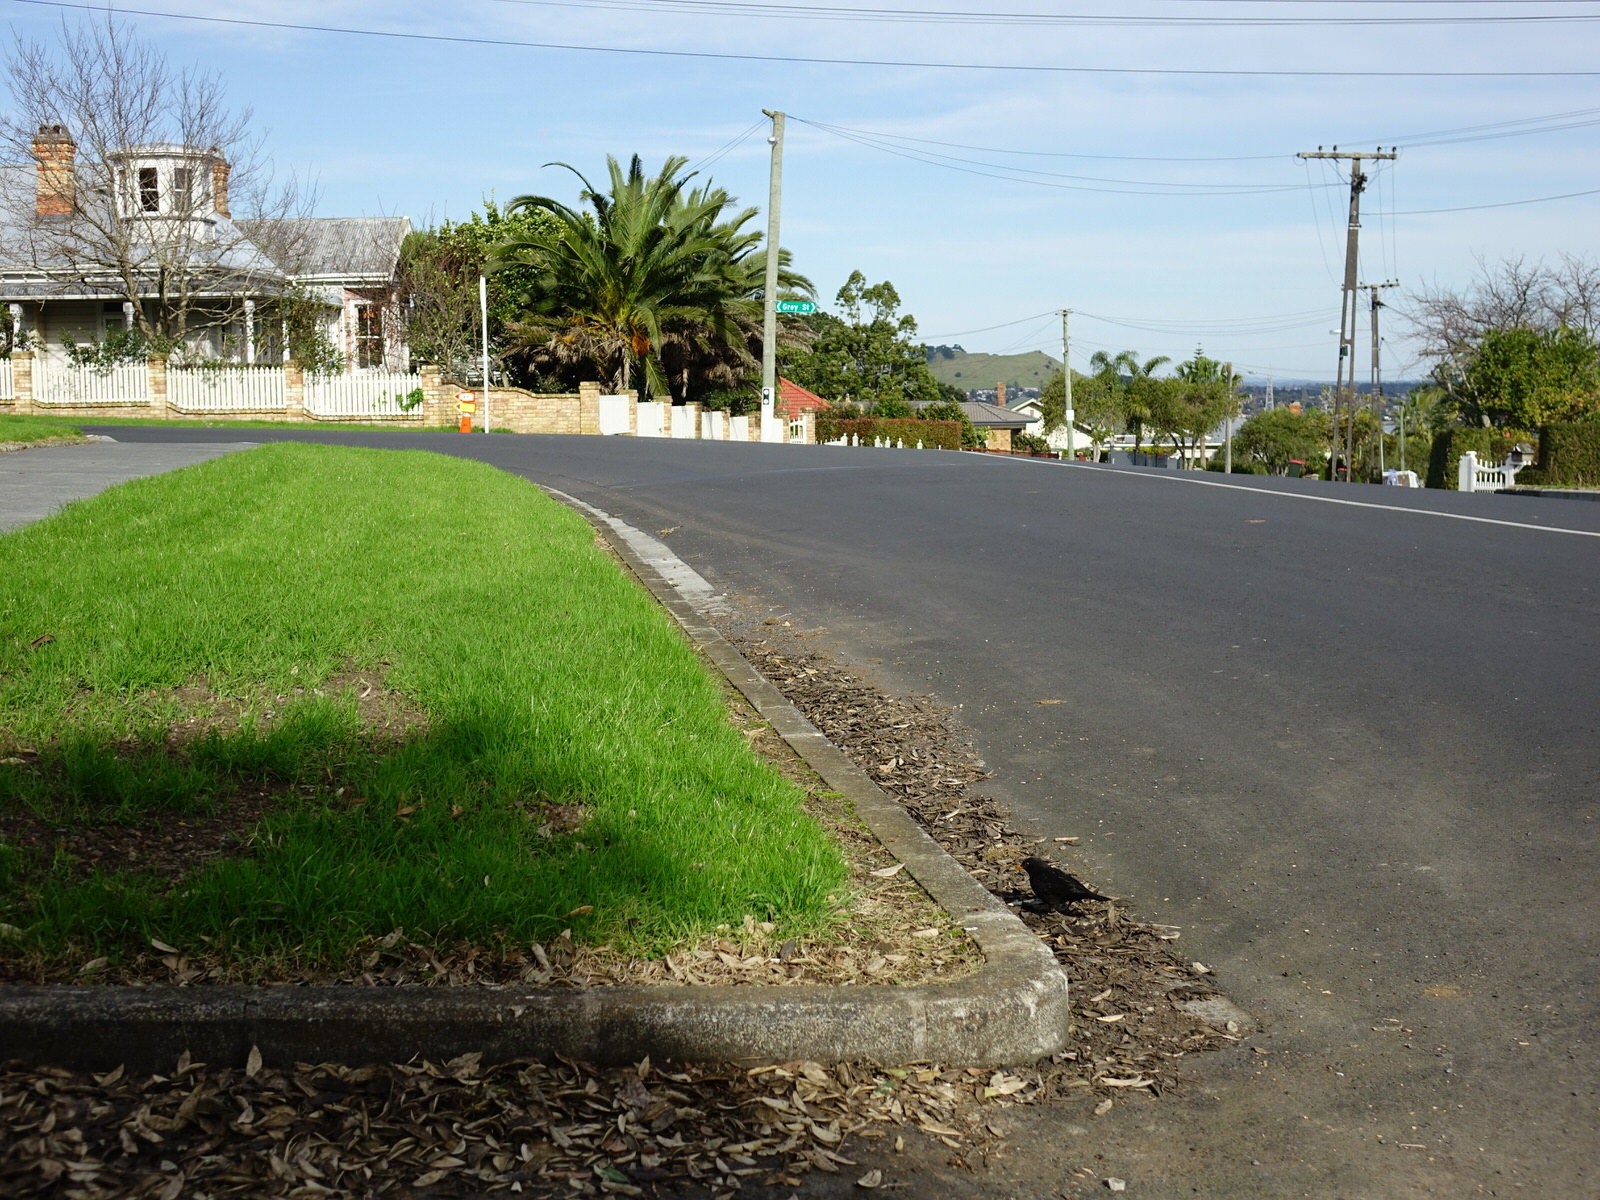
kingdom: Animalia
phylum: Chordata
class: Aves
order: Passeriformes
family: Turdidae
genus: Turdus
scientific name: Turdus merula
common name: Common blackbird
